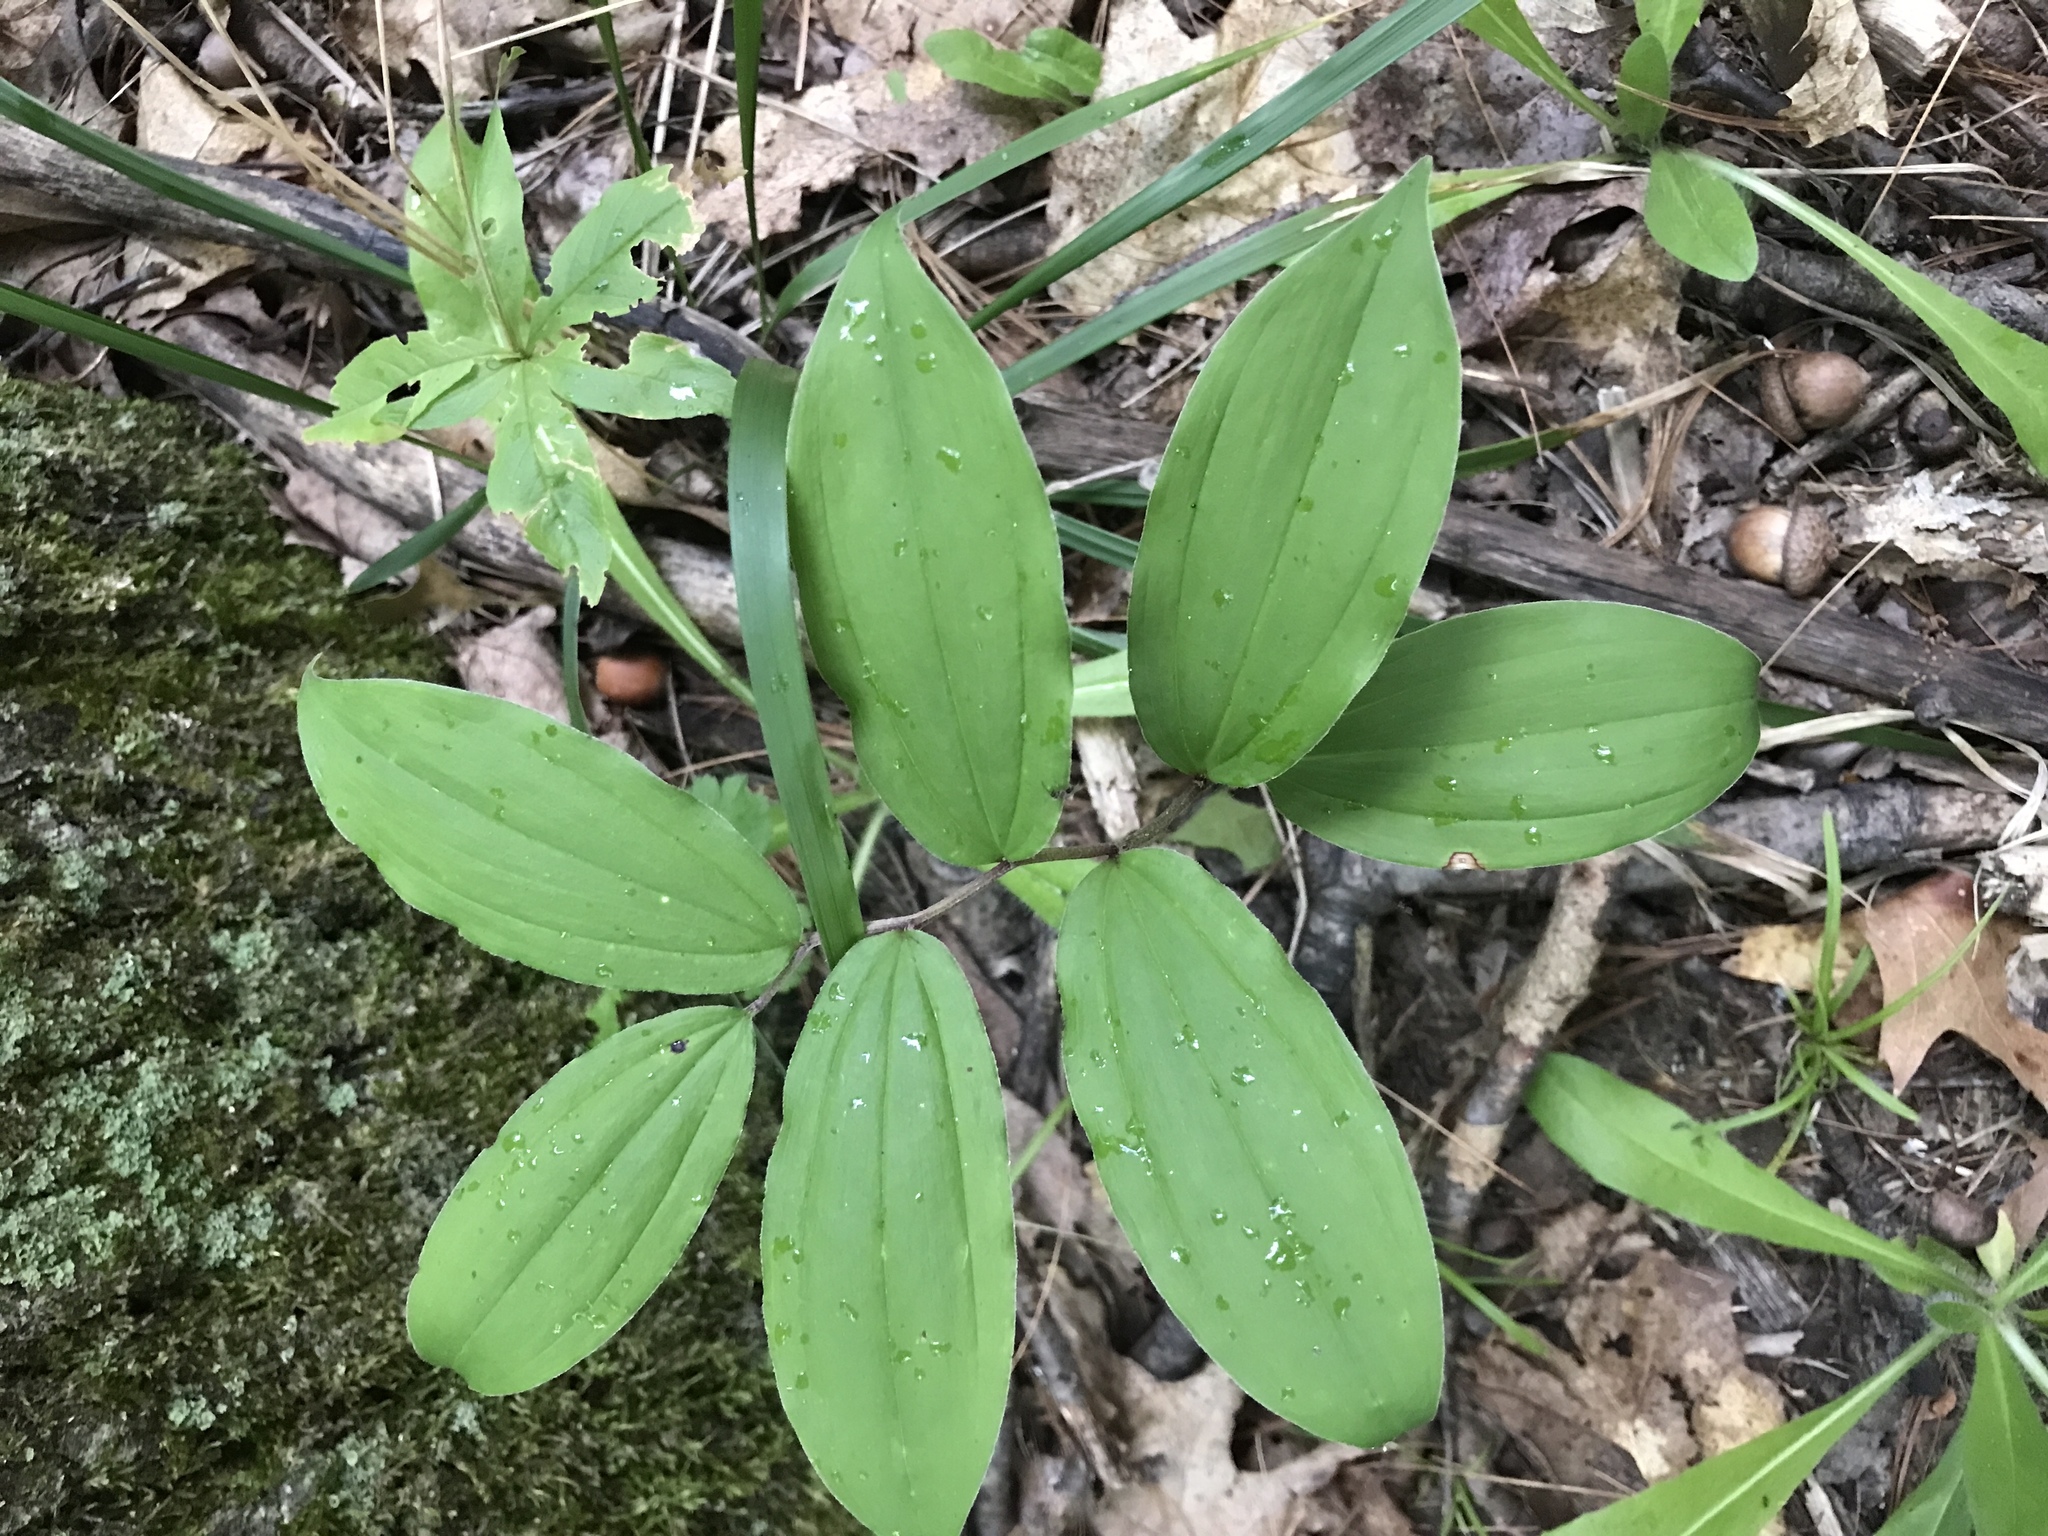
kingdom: Plantae
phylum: Tracheophyta
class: Liliopsida
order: Asparagales
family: Asparagaceae
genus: Maianthemum
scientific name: Maianthemum racemosum
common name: False spikenard
